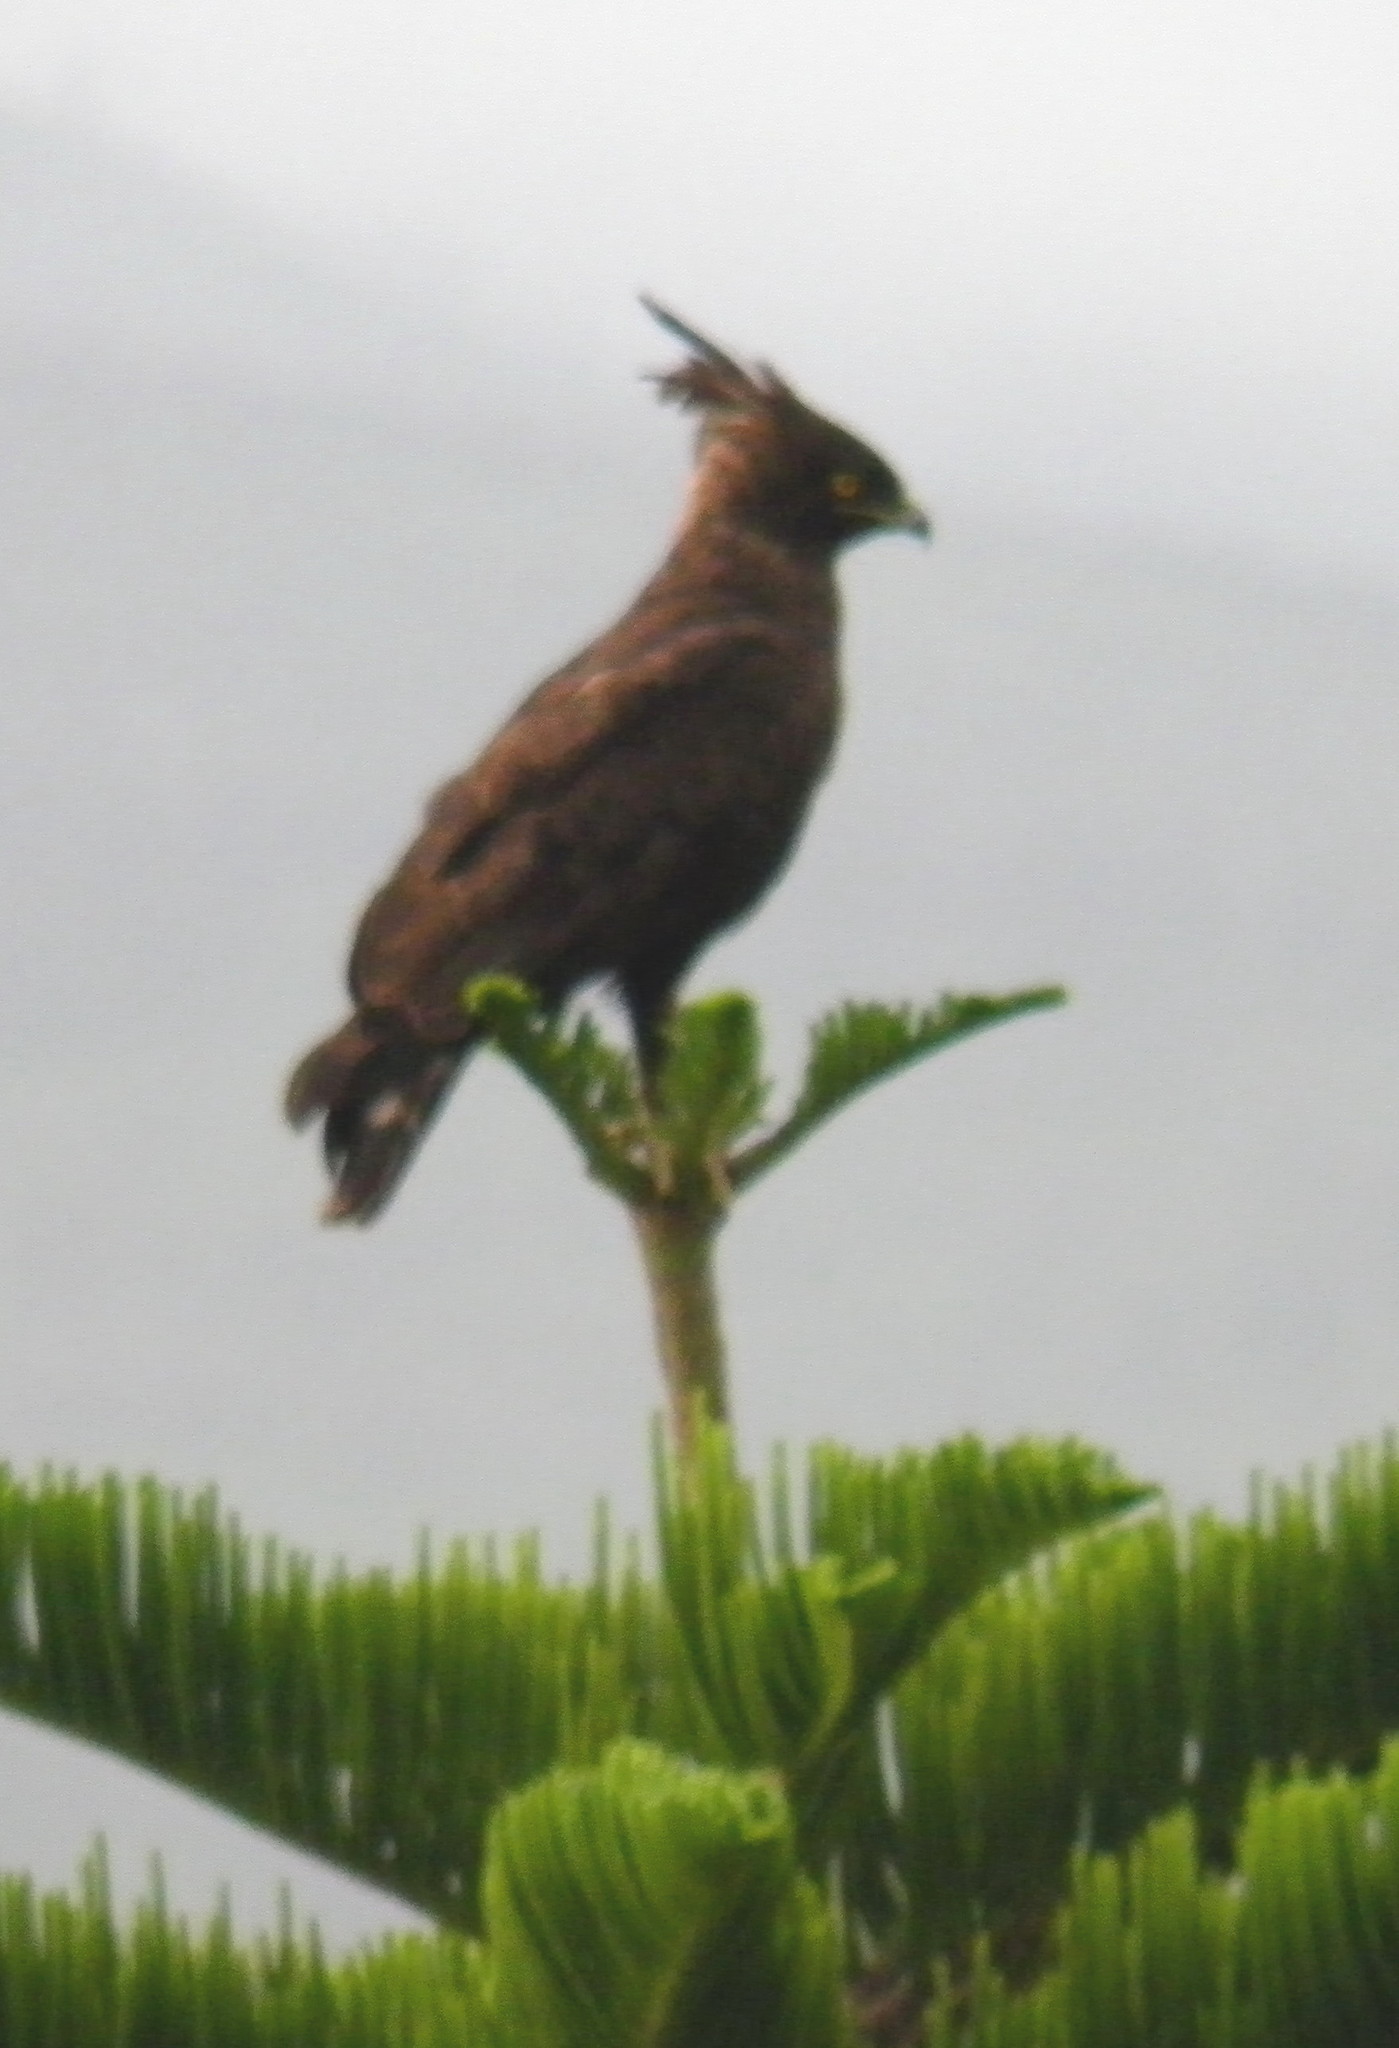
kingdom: Animalia
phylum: Chordata
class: Aves
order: Accipitriformes
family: Accipitridae
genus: Lophaetus
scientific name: Lophaetus occipitalis
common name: Long-crested eagle
